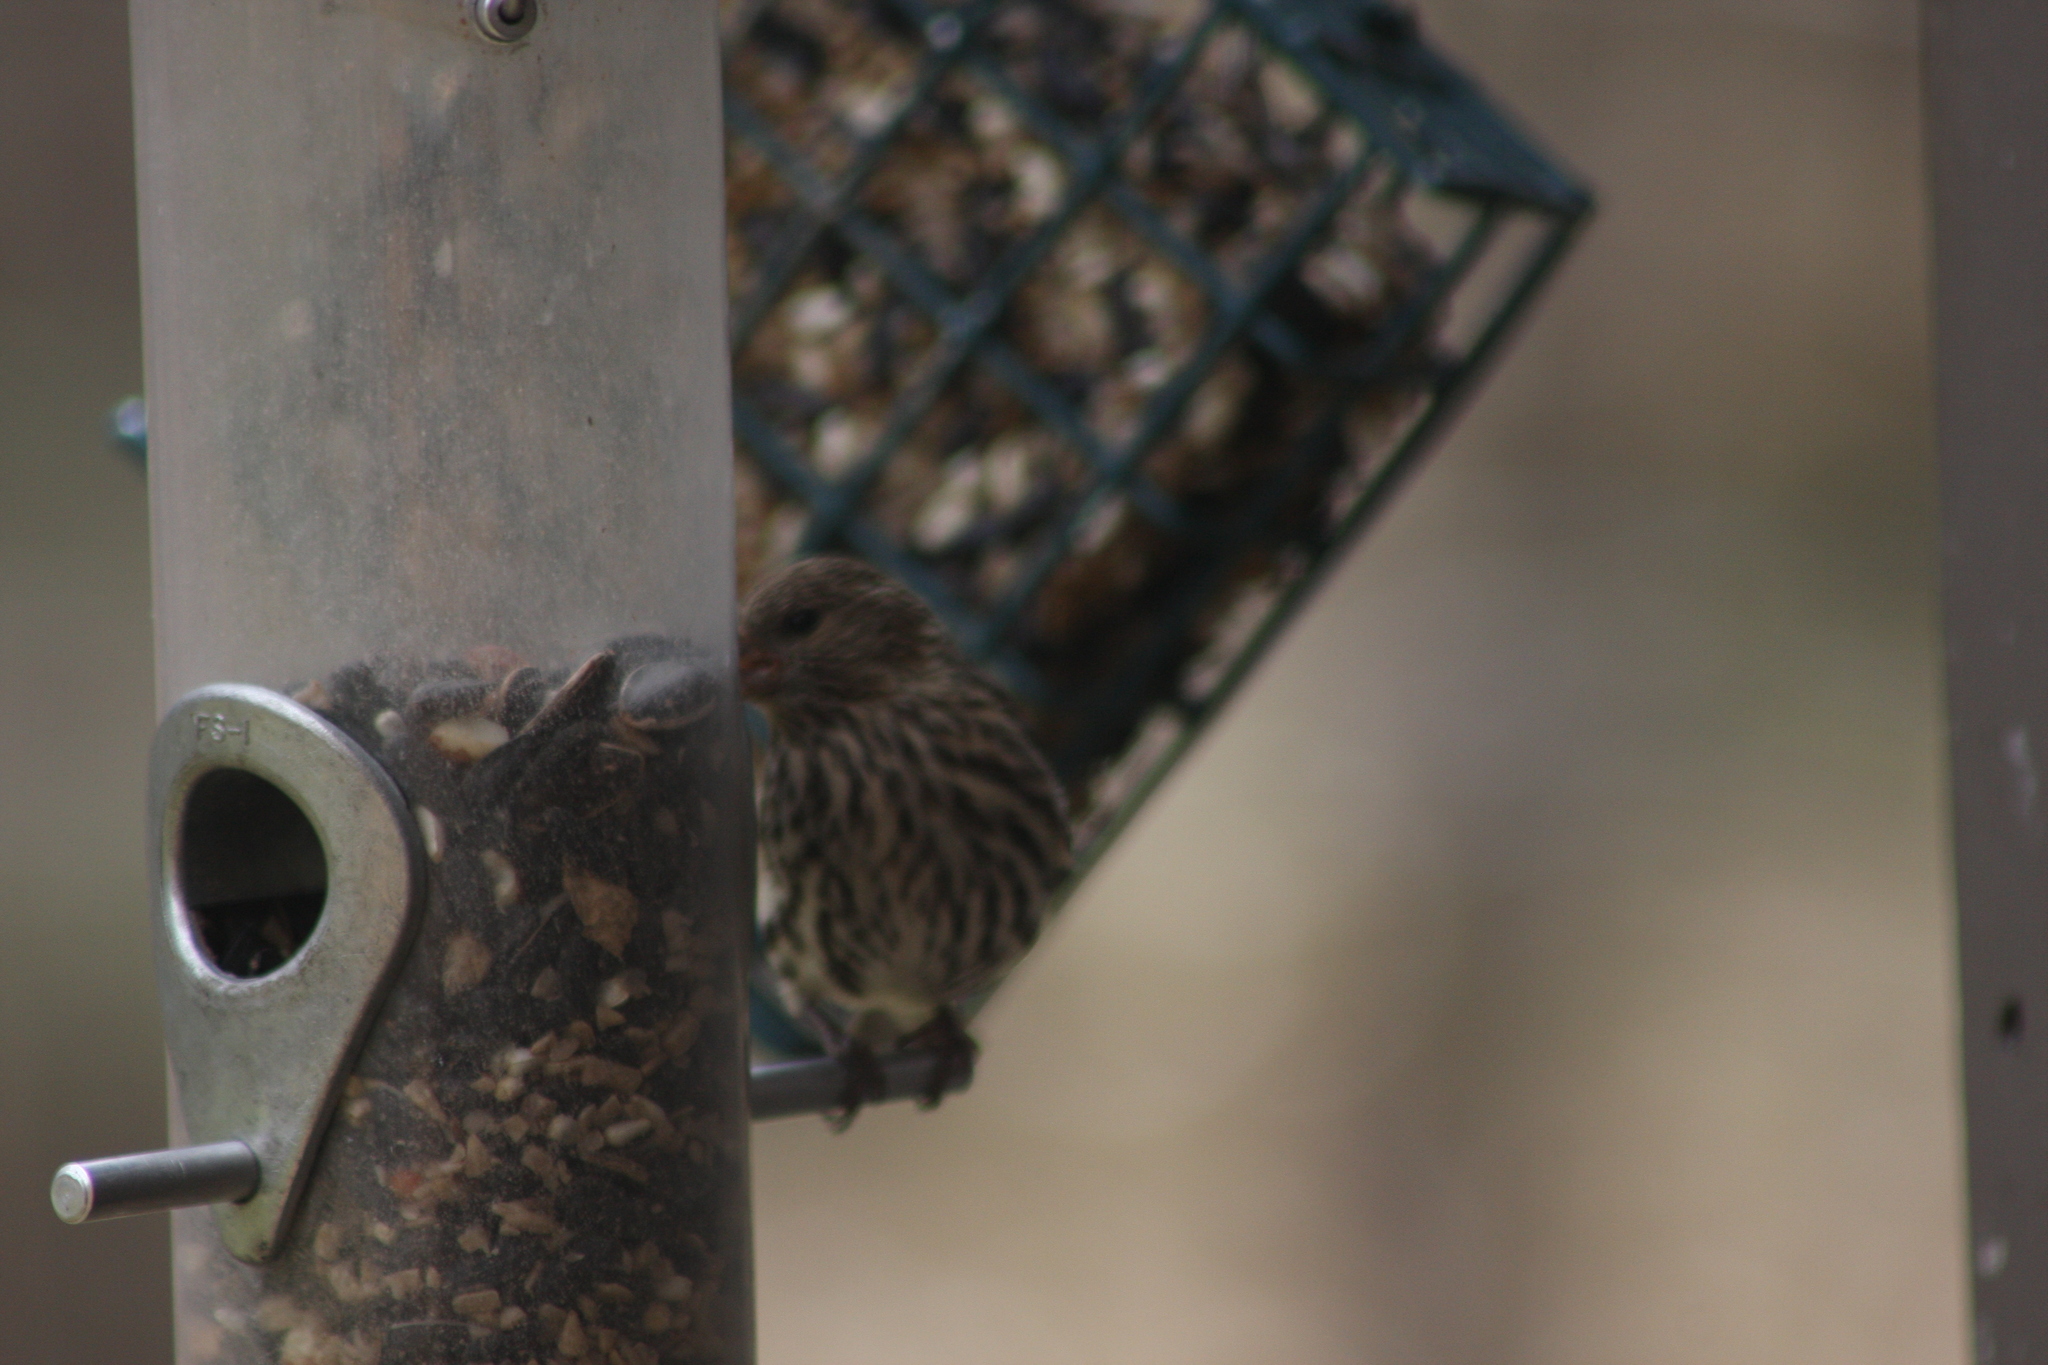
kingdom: Animalia
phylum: Chordata
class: Aves
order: Passeriformes
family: Fringillidae
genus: Spinus
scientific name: Spinus pinus
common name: Pine siskin
